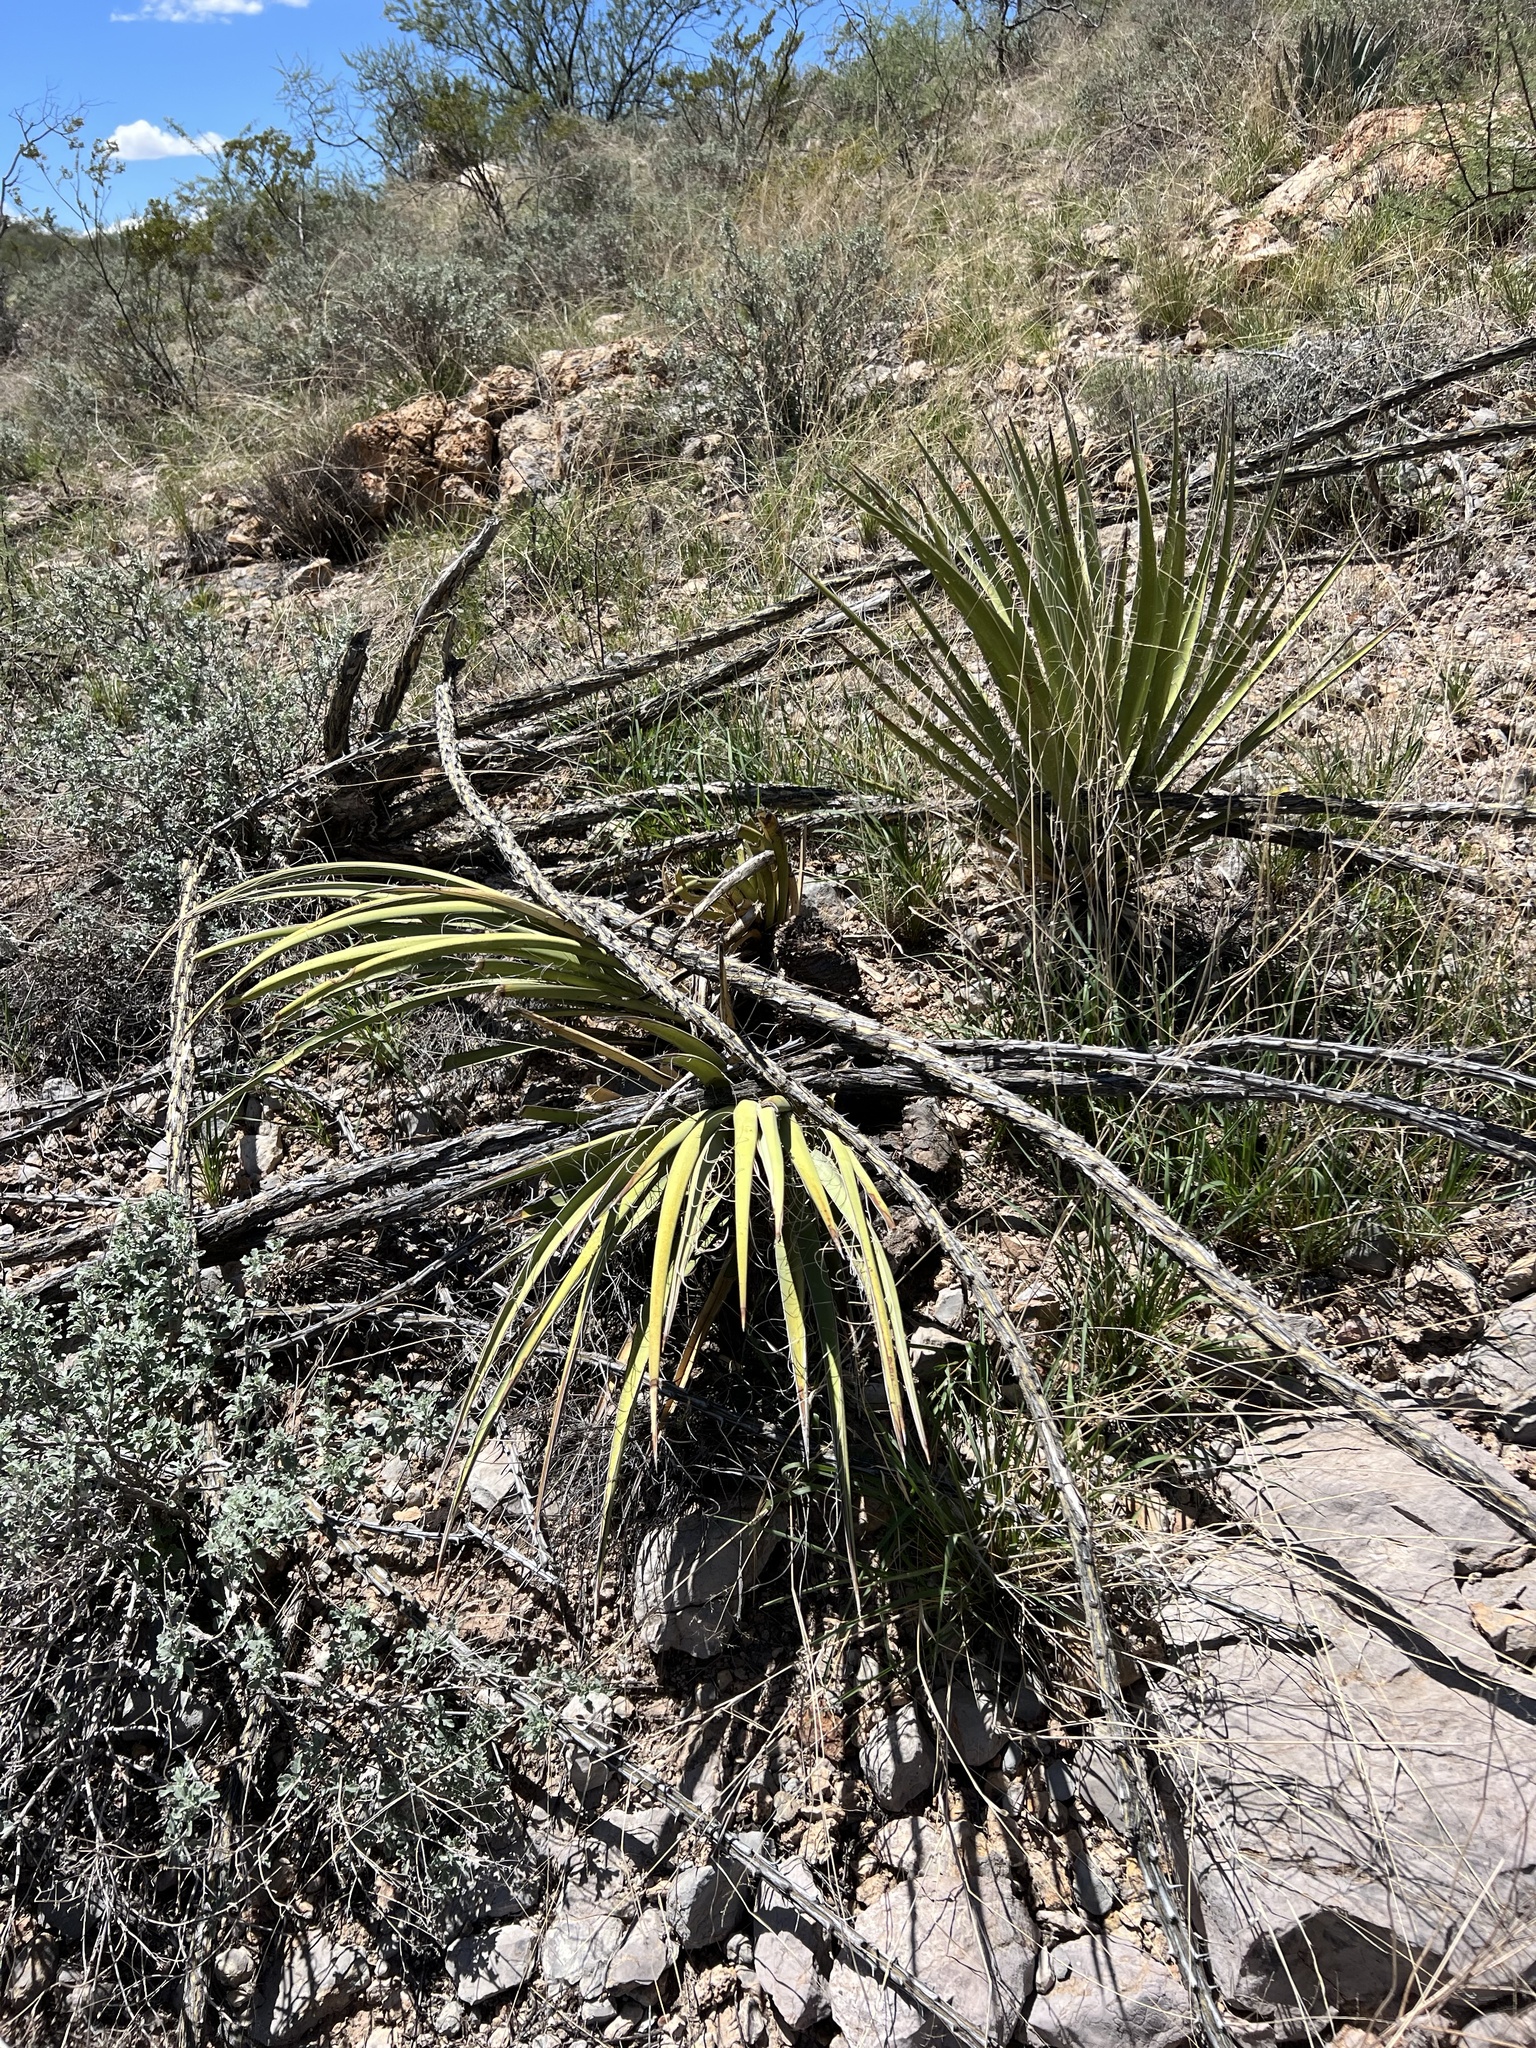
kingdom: Plantae
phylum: Tracheophyta
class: Liliopsida
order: Asparagales
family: Asparagaceae
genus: Yucca
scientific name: Yucca baccata
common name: Banana yucca
